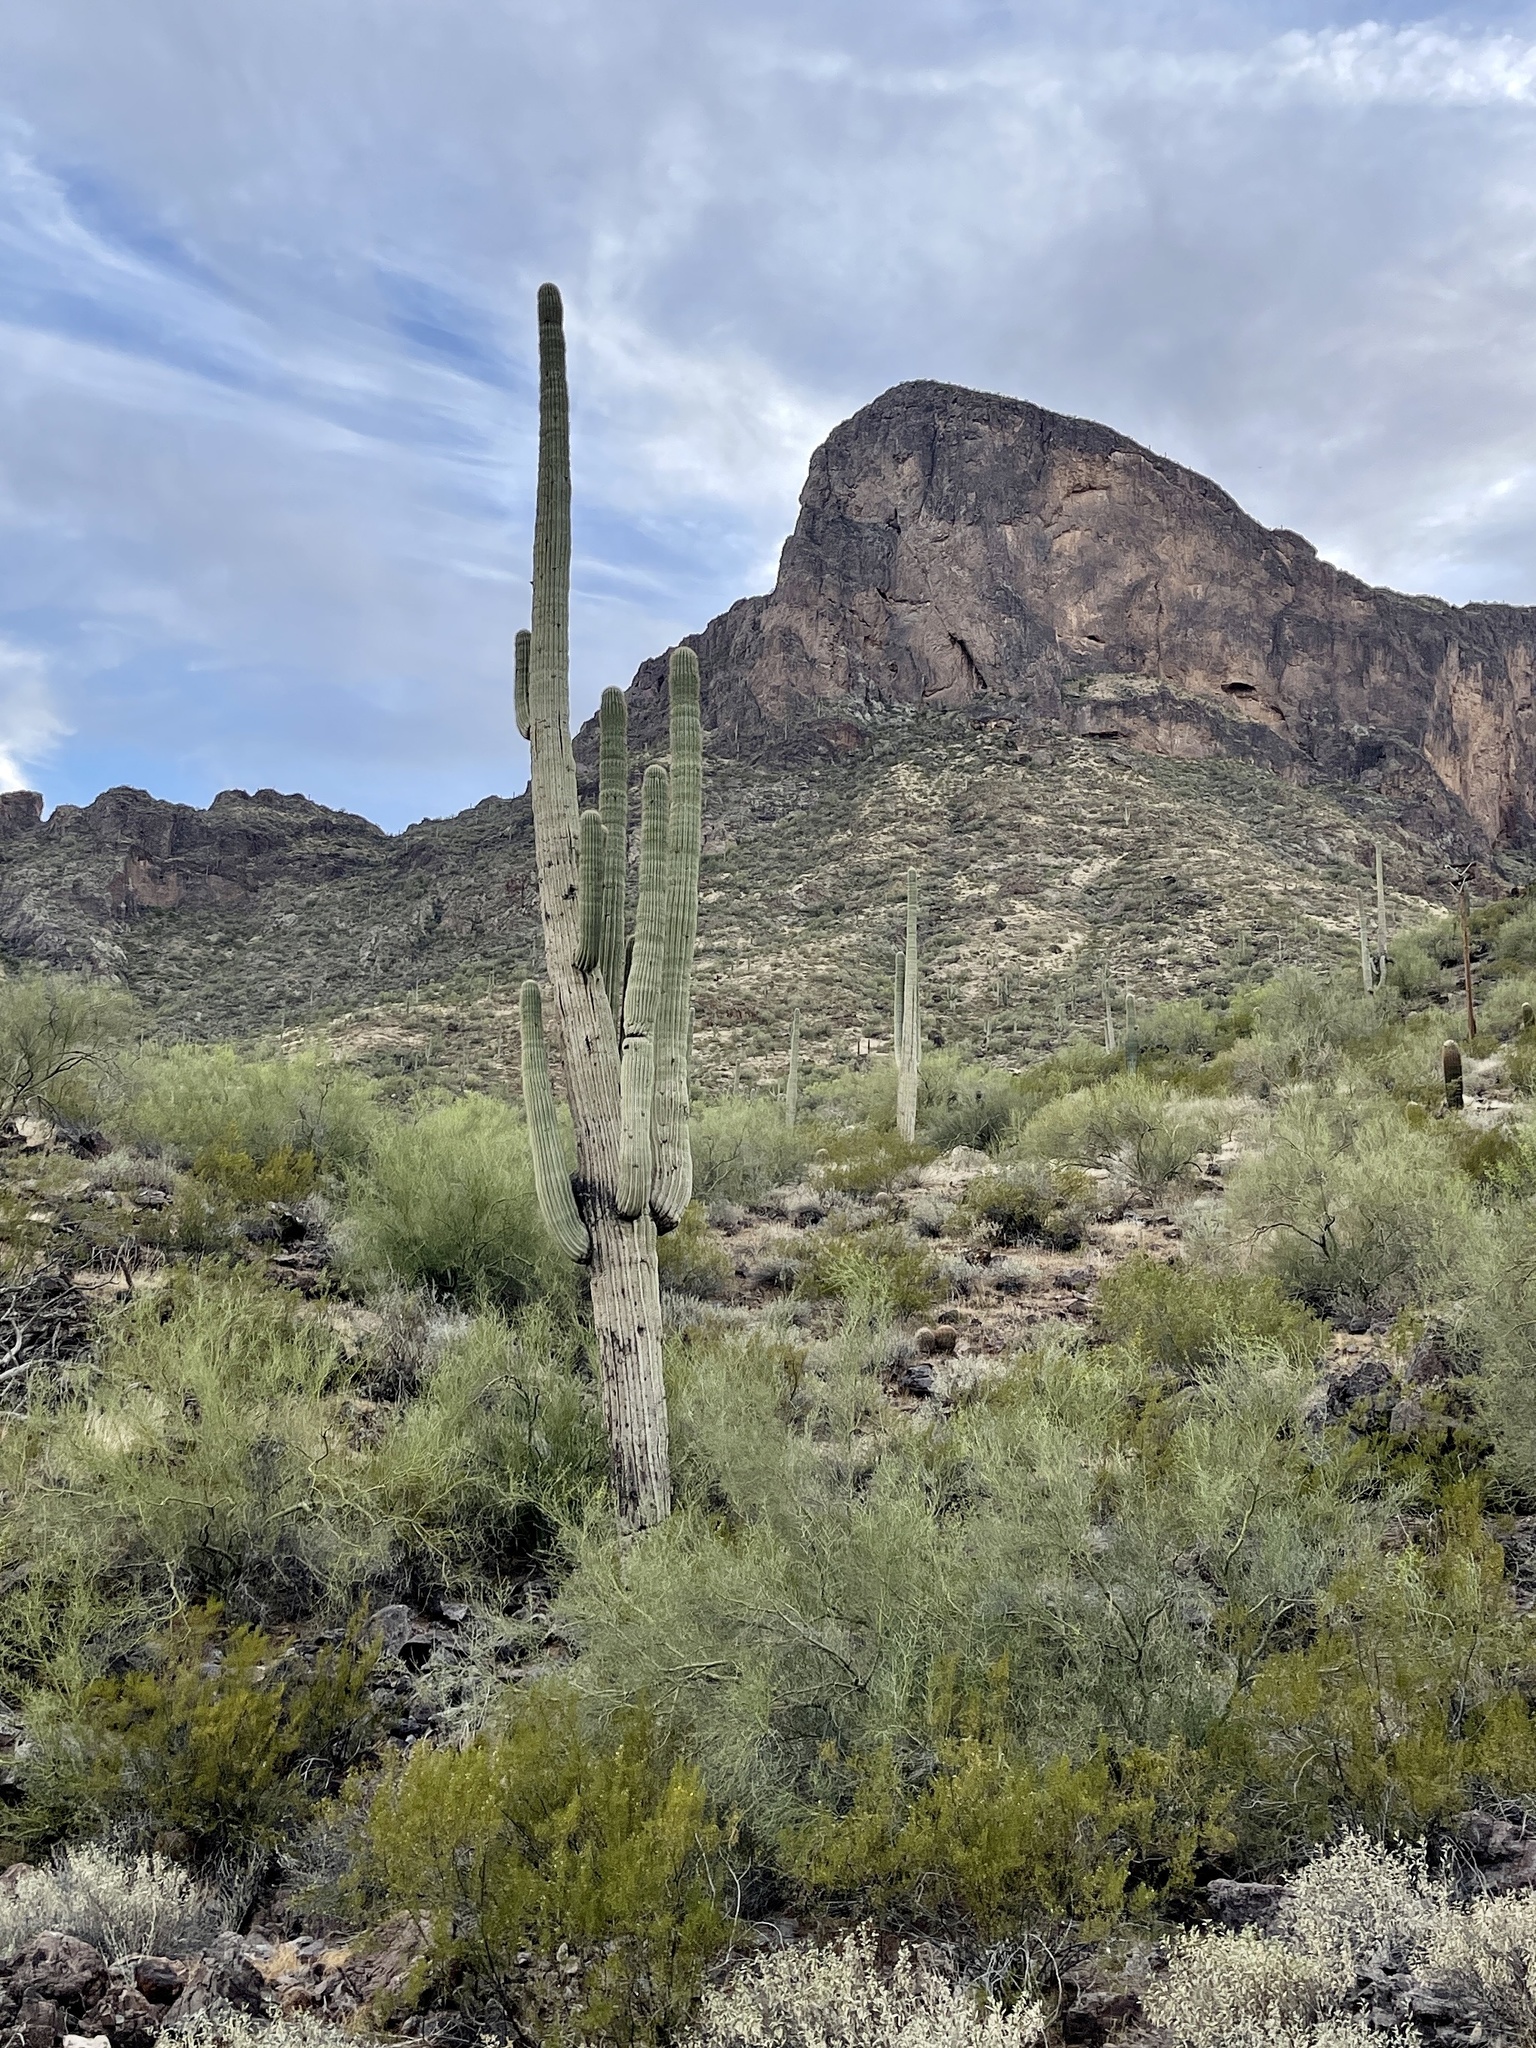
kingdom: Plantae
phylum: Tracheophyta
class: Magnoliopsida
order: Caryophyllales
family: Cactaceae
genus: Carnegiea
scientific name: Carnegiea gigantea
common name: Saguaro
